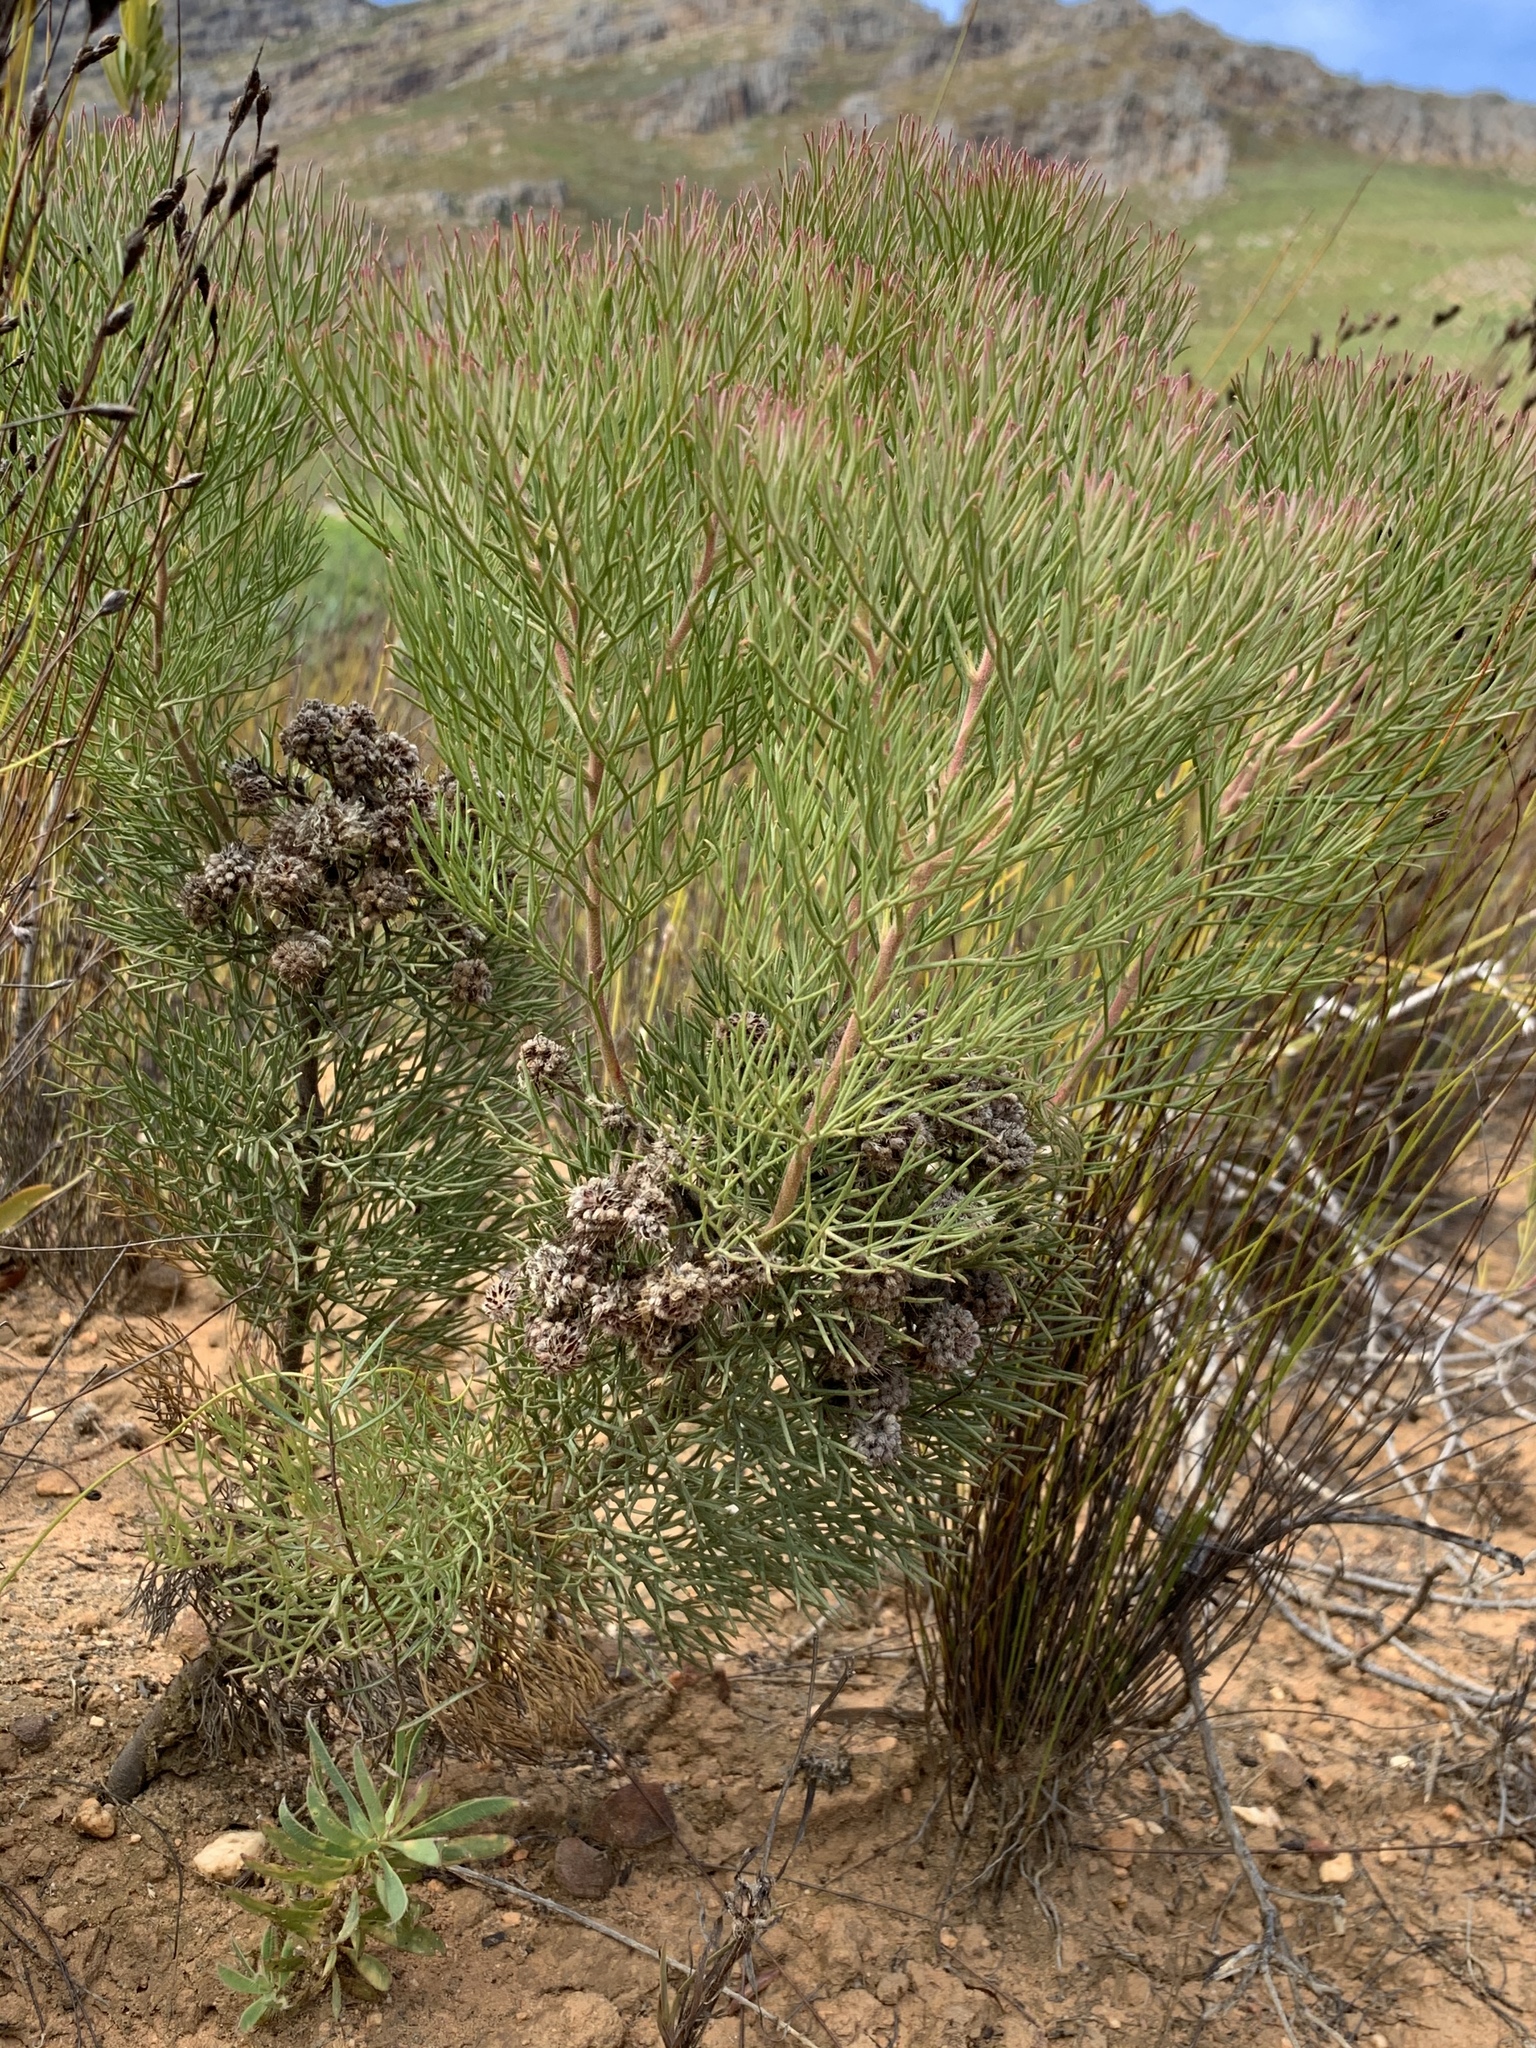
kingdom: Plantae
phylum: Tracheophyta
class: Magnoliopsida
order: Proteales
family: Proteaceae
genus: Serruria
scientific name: Serruria kraussii
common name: Snowball spiderhead
